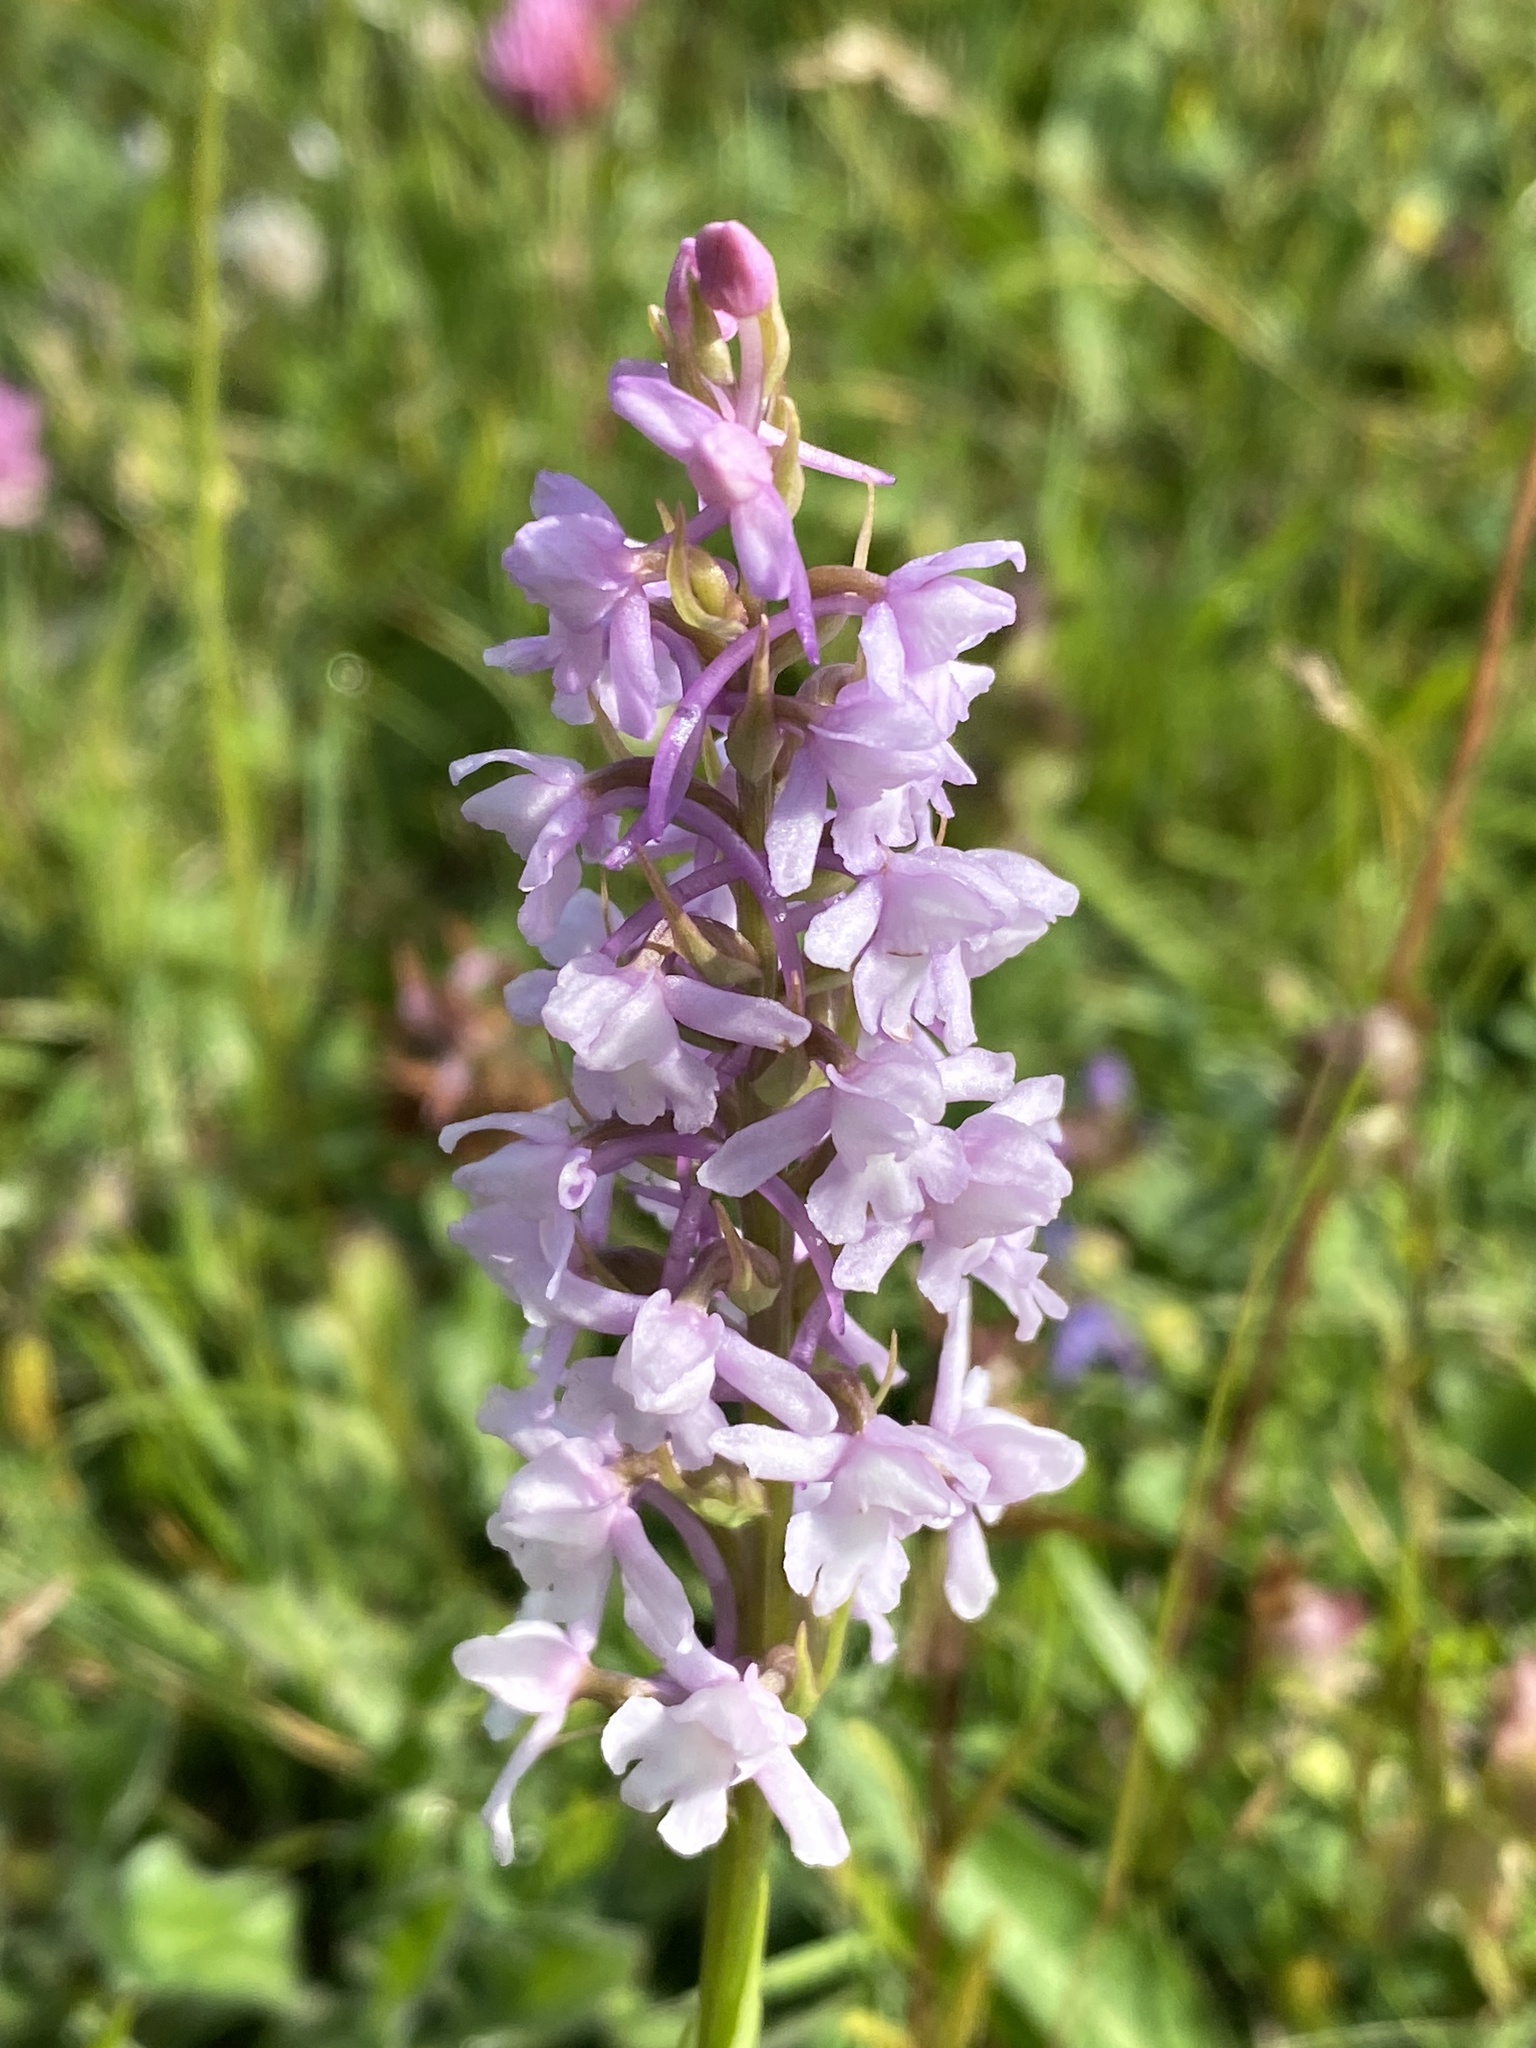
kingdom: Plantae
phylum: Tracheophyta
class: Liliopsida
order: Asparagales
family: Orchidaceae
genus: Gymnadenia
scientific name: Gymnadenia conopsea
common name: Fragrant orchid
